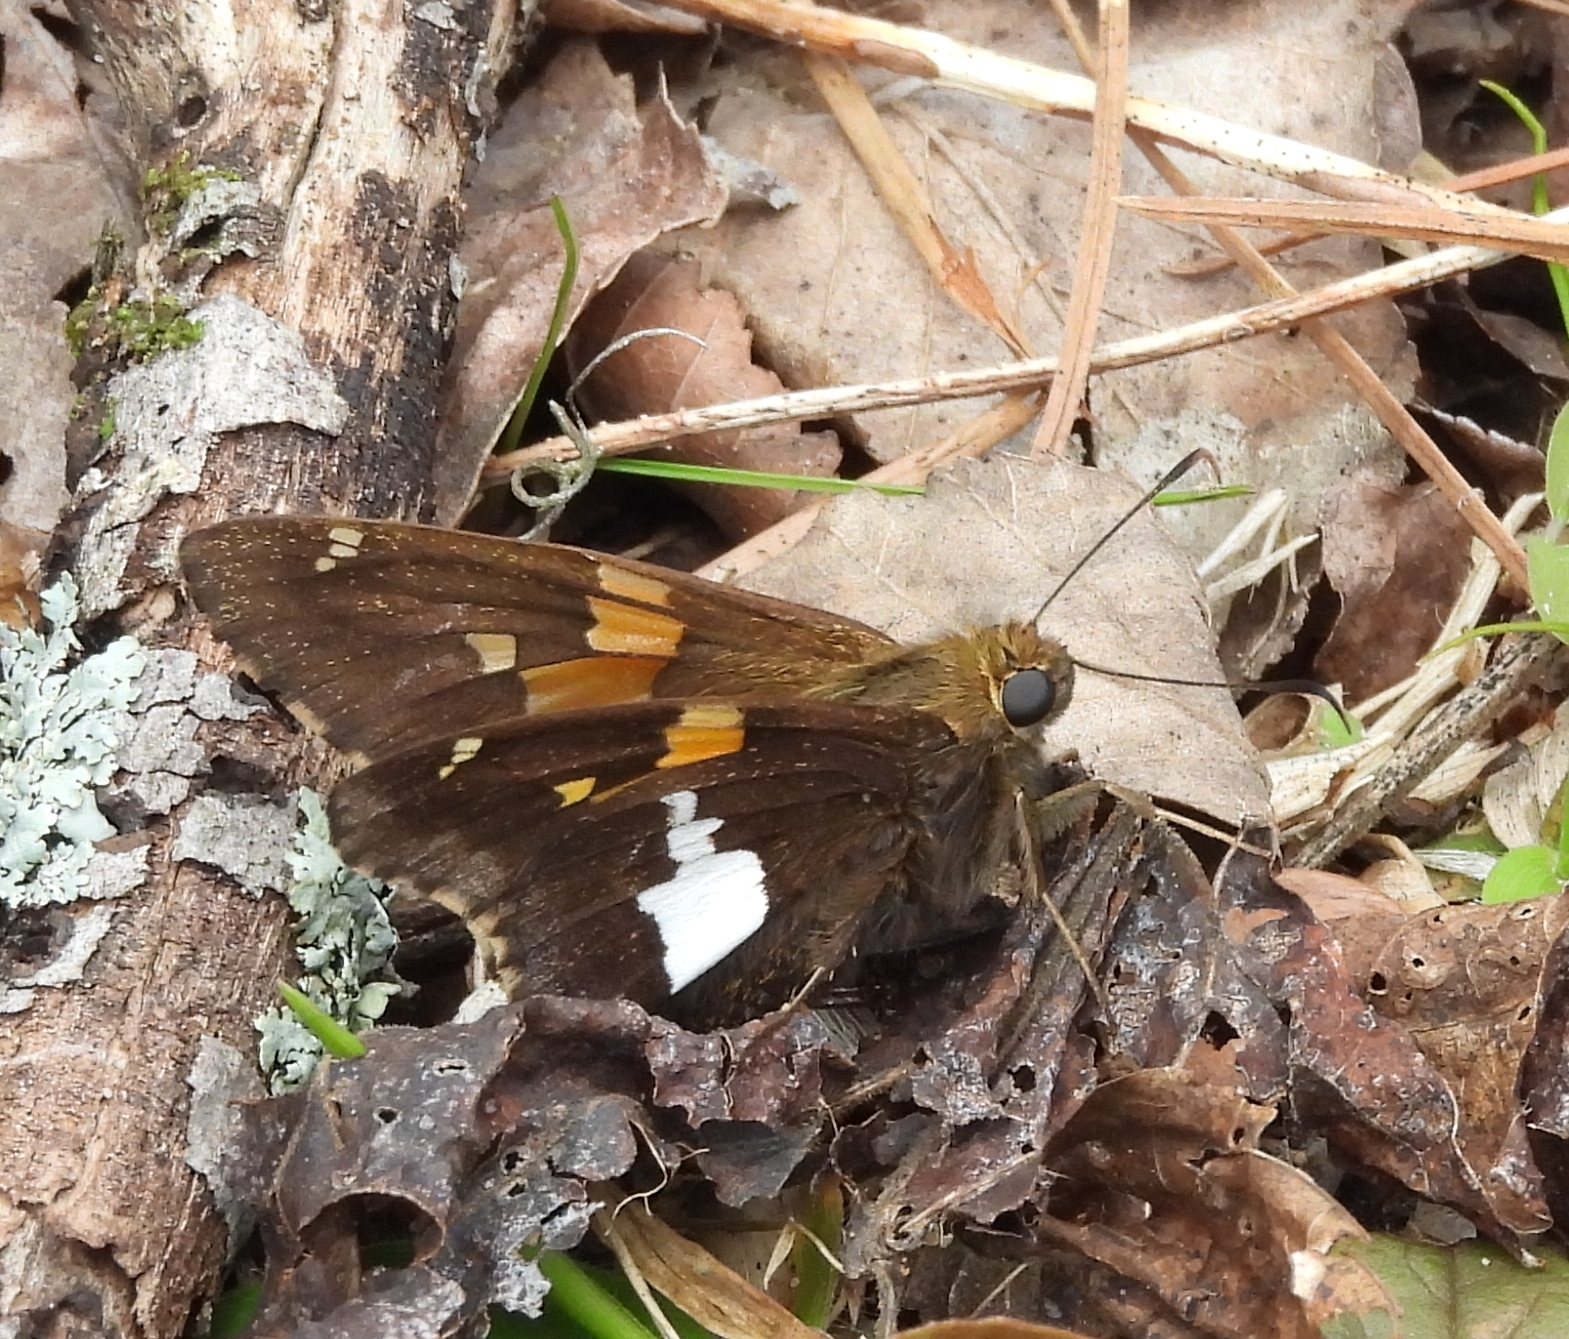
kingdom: Animalia
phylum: Arthropoda
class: Insecta
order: Lepidoptera
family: Hesperiidae
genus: Epargyreus
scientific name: Epargyreus clarus
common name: Silver-spotted skipper
